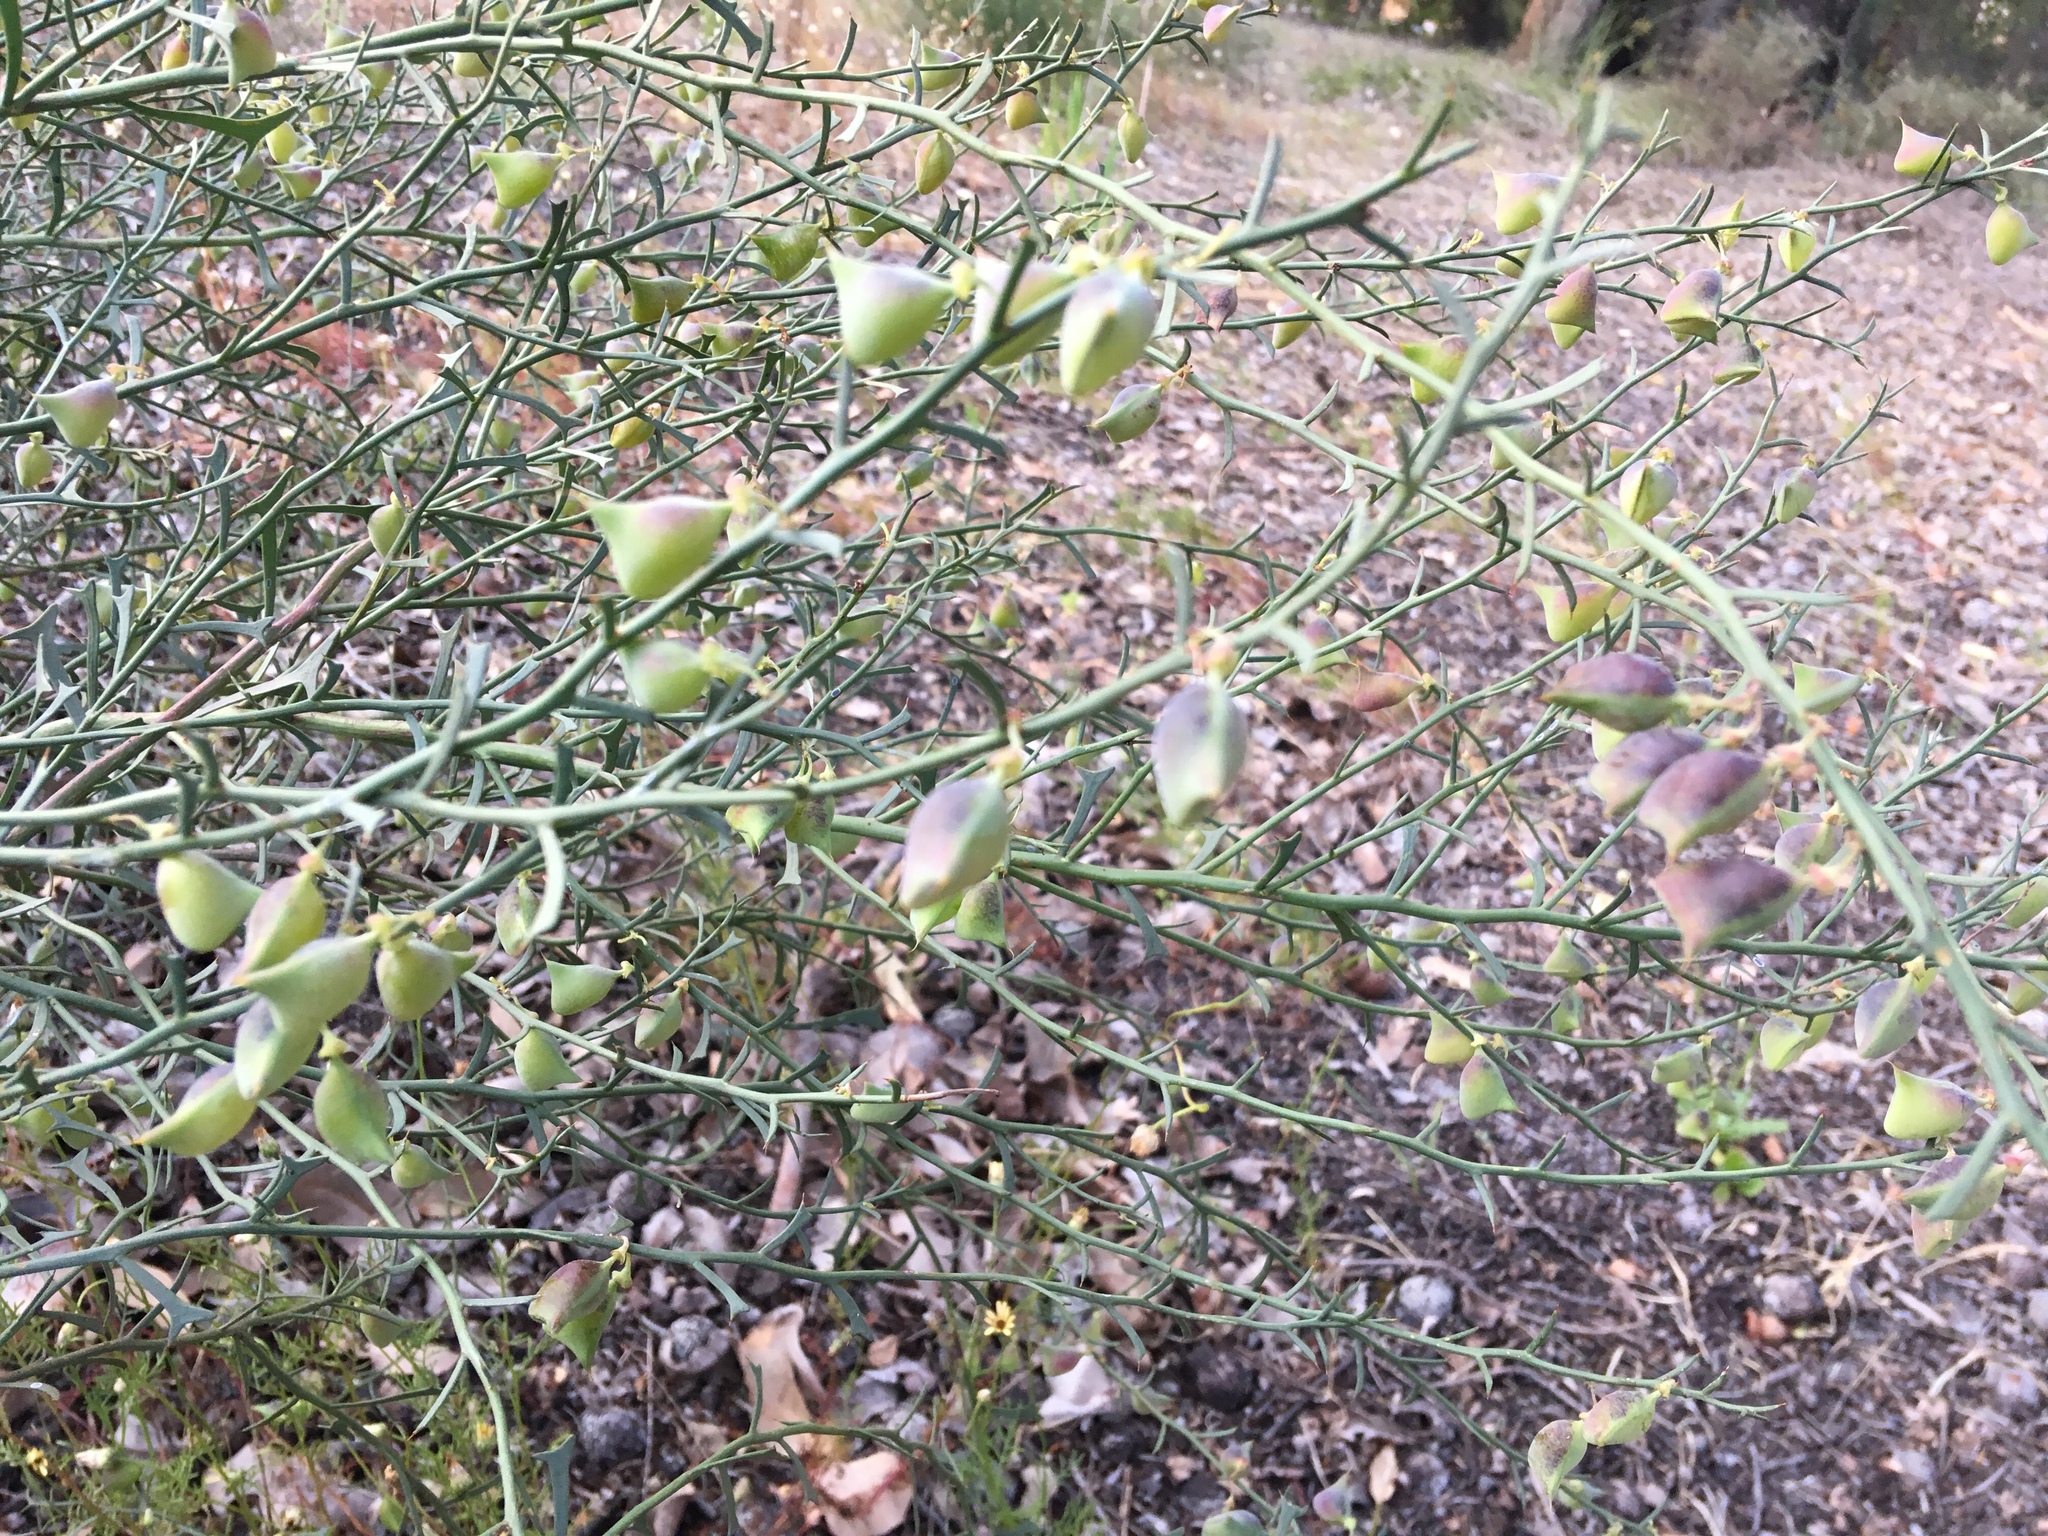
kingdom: Plantae
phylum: Tracheophyta
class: Magnoliopsida
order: Fabales
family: Fabaceae
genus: Daviesia
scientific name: Daviesia physodes
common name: Prickly bitter pea
